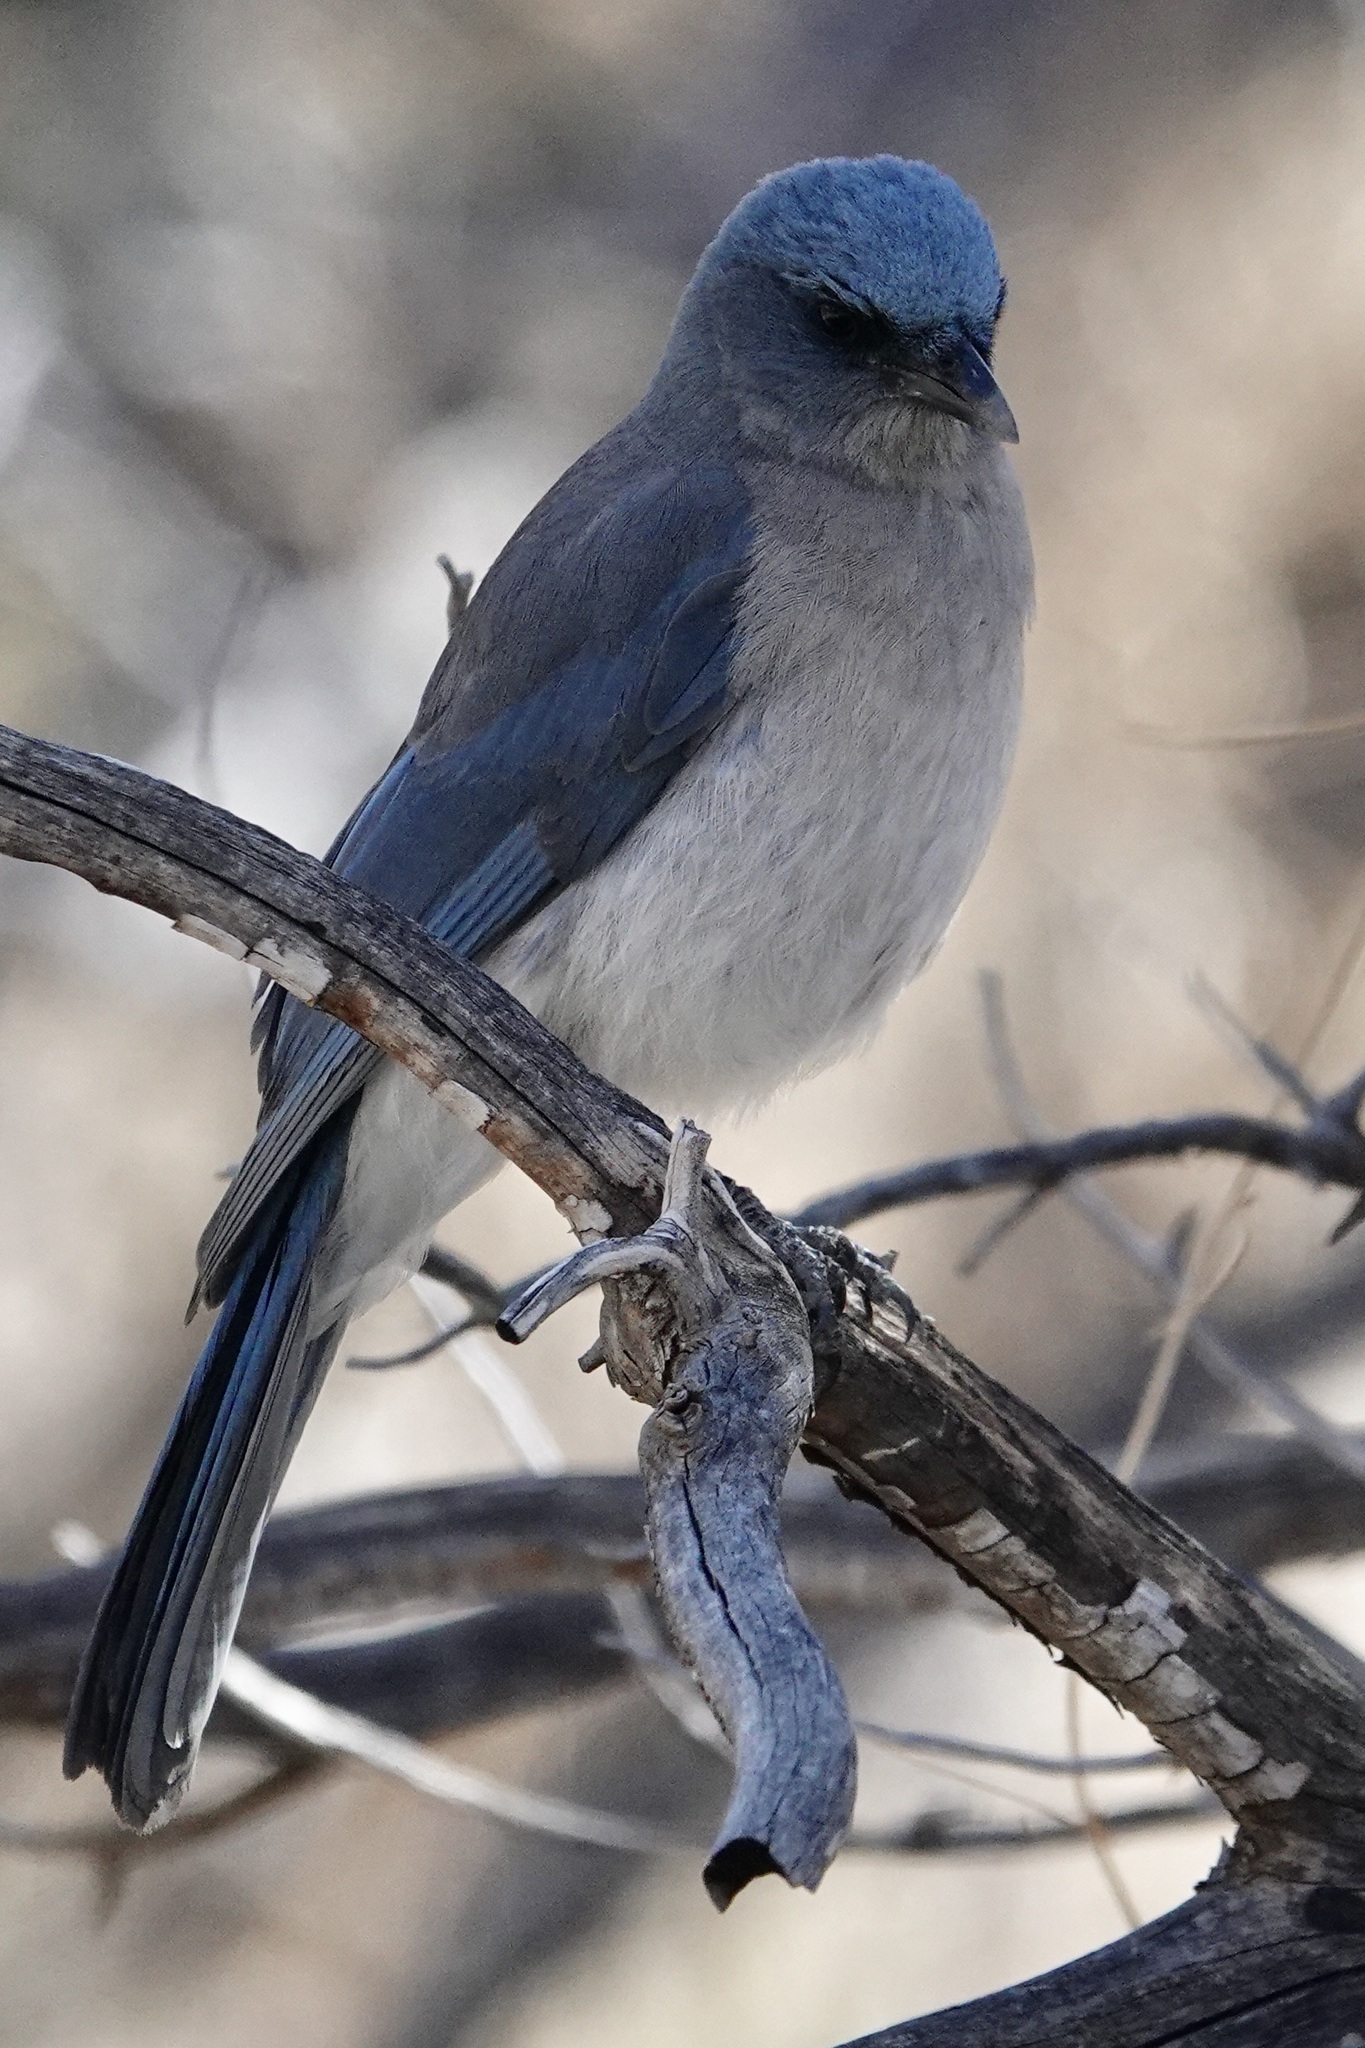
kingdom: Animalia
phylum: Chordata
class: Aves
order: Passeriformes
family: Corvidae
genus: Aphelocoma
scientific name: Aphelocoma wollweberi
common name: Mexican jay
